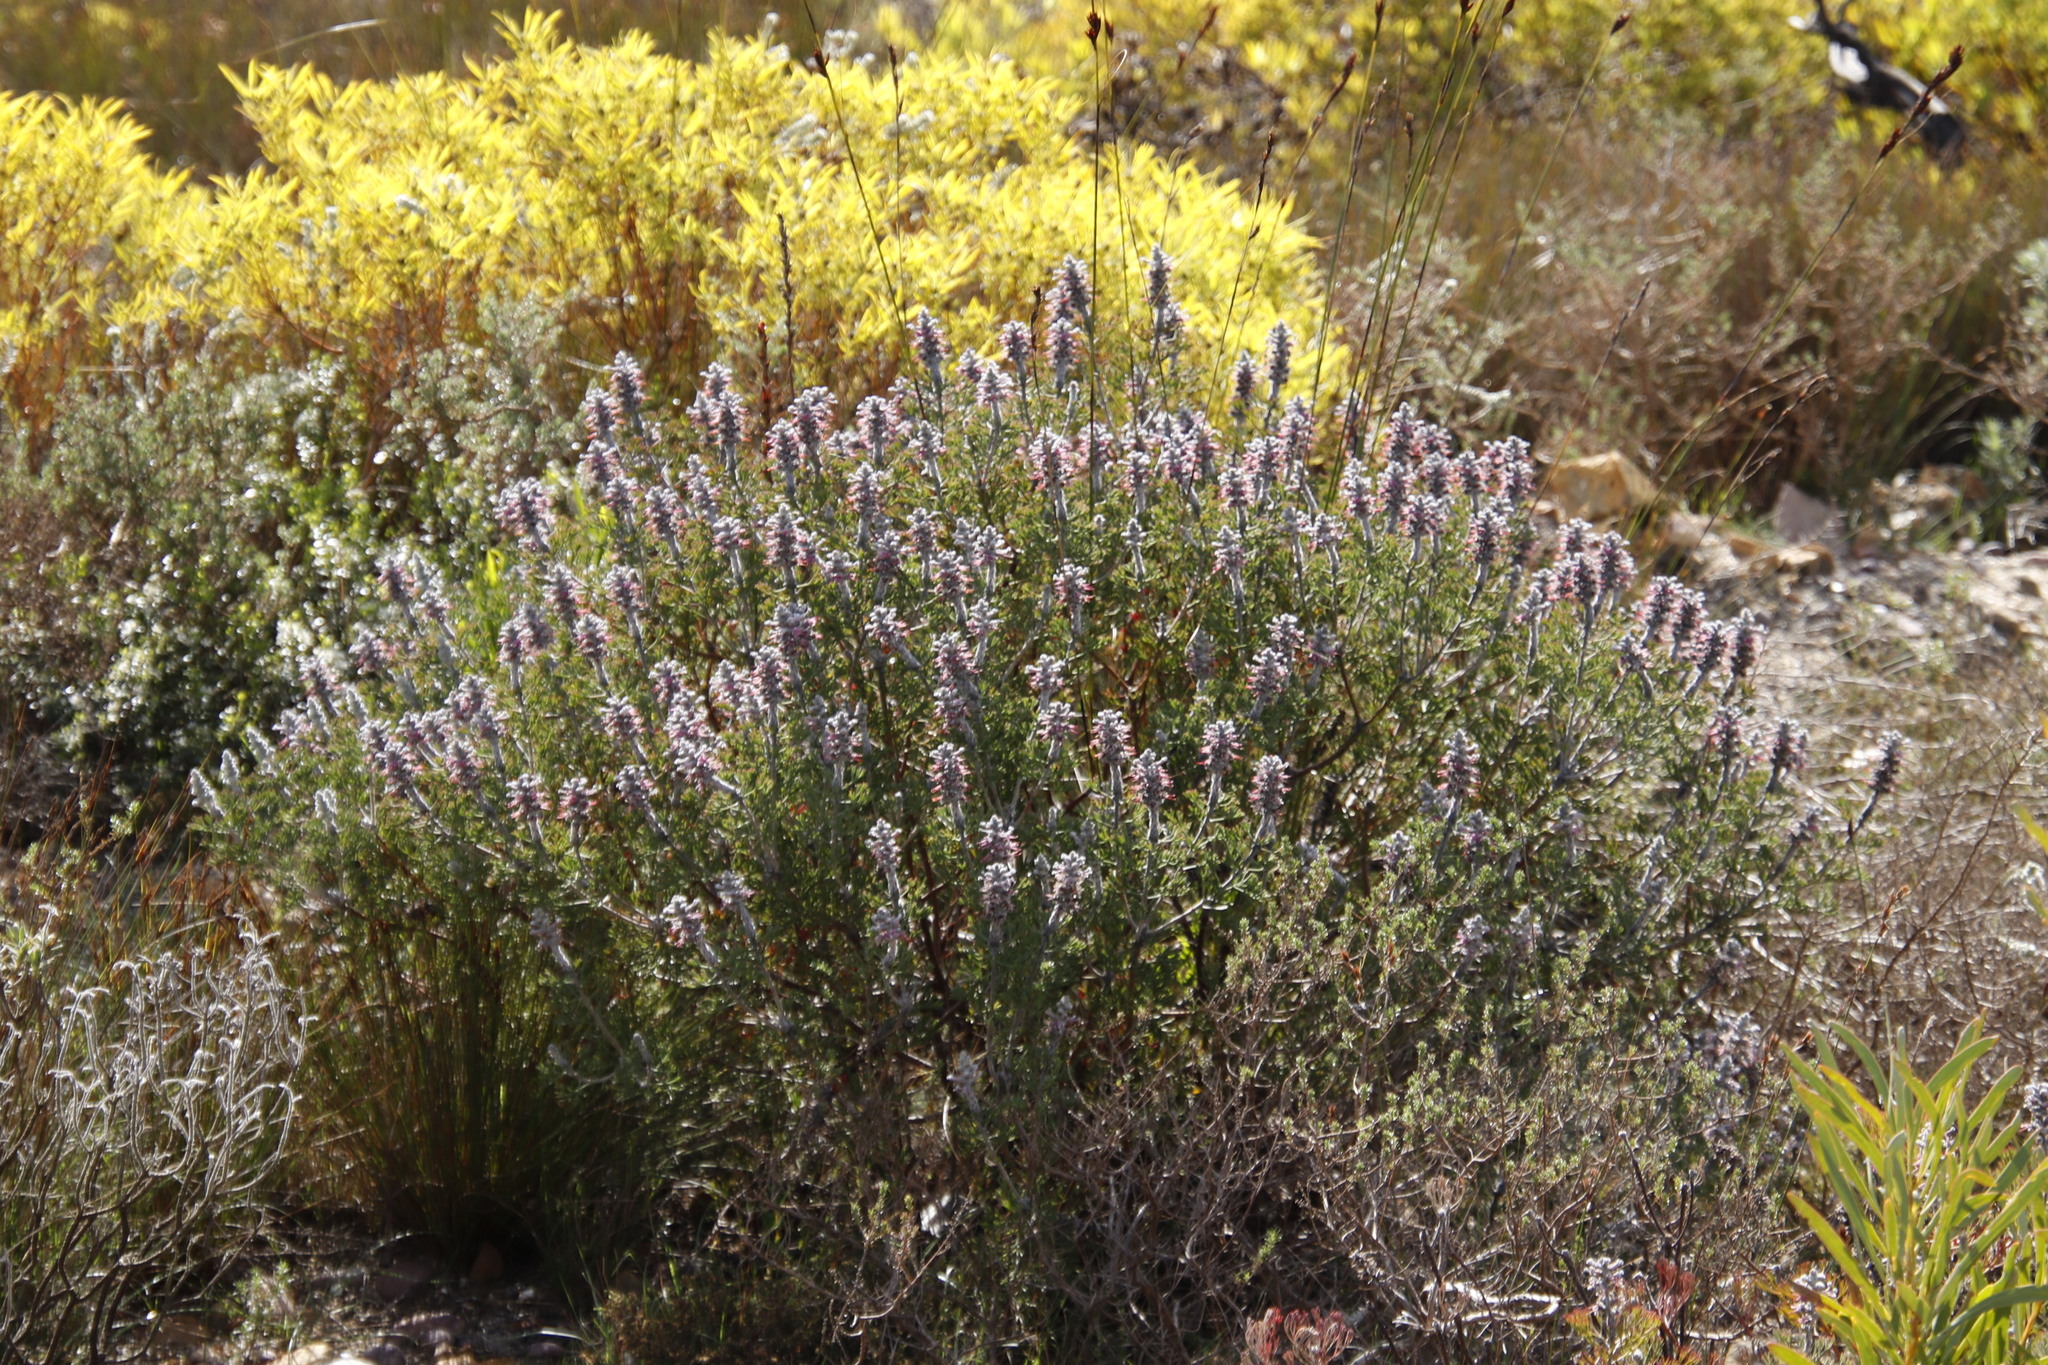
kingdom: Plantae
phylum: Tracheophyta
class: Magnoliopsida
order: Proteales
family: Proteaceae
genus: Paranomus
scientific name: Paranomus bolusii
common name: Overberg sceptre
